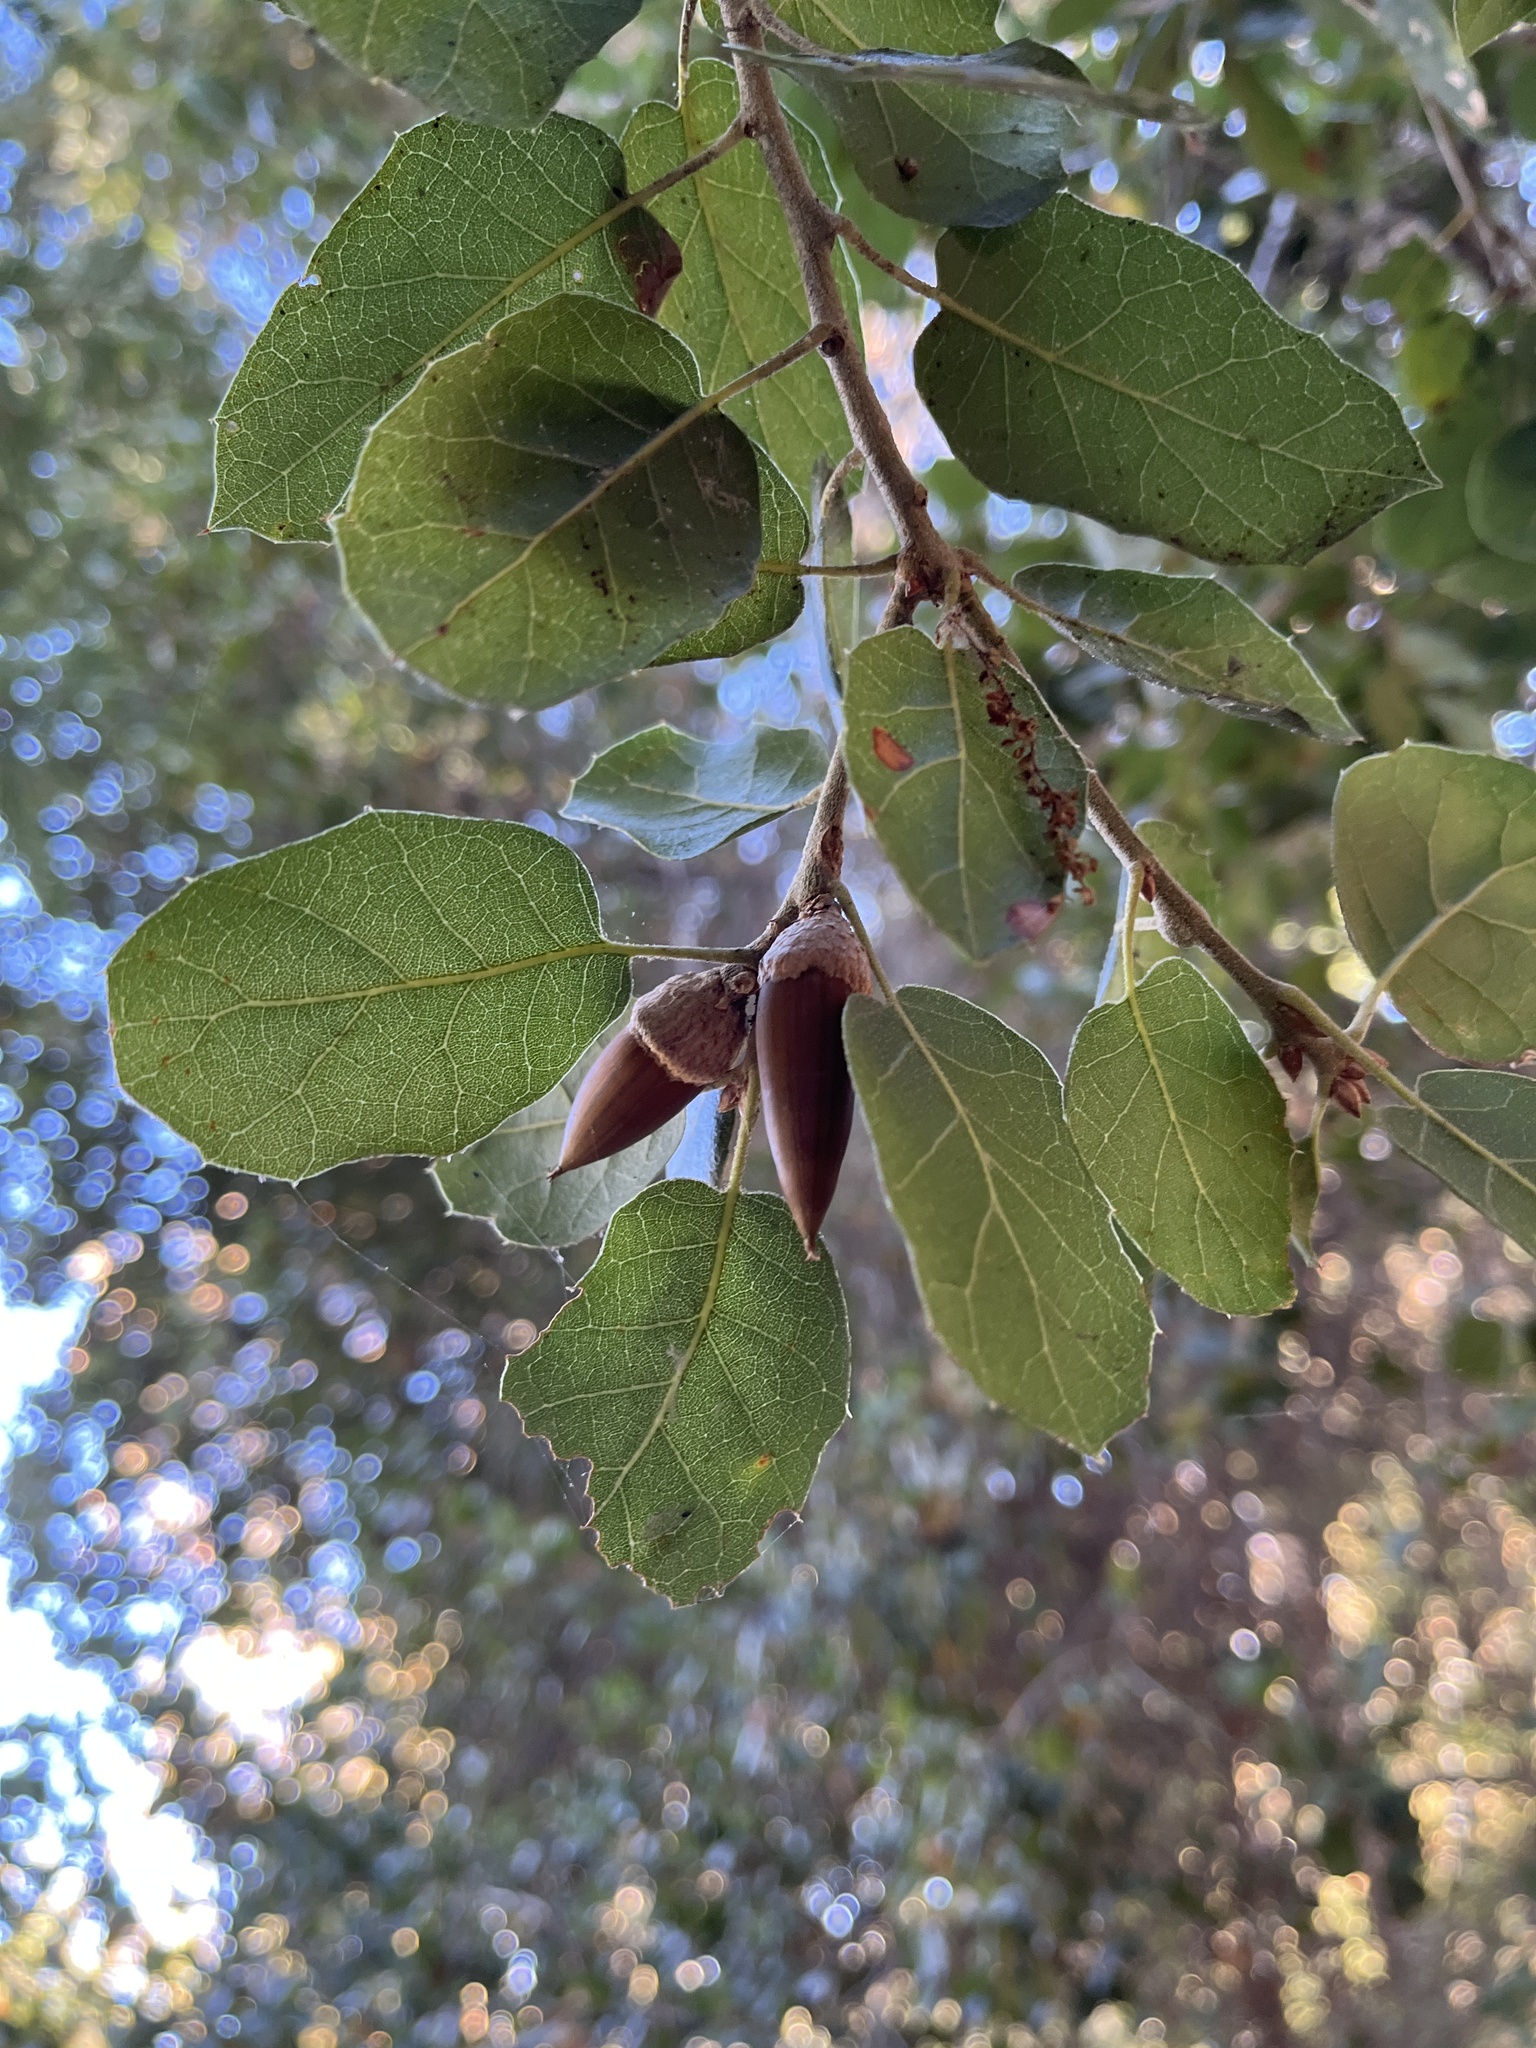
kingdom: Plantae
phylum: Tracheophyta
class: Magnoliopsida
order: Fagales
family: Fagaceae
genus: Quercus
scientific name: Quercus agrifolia
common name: California live oak
